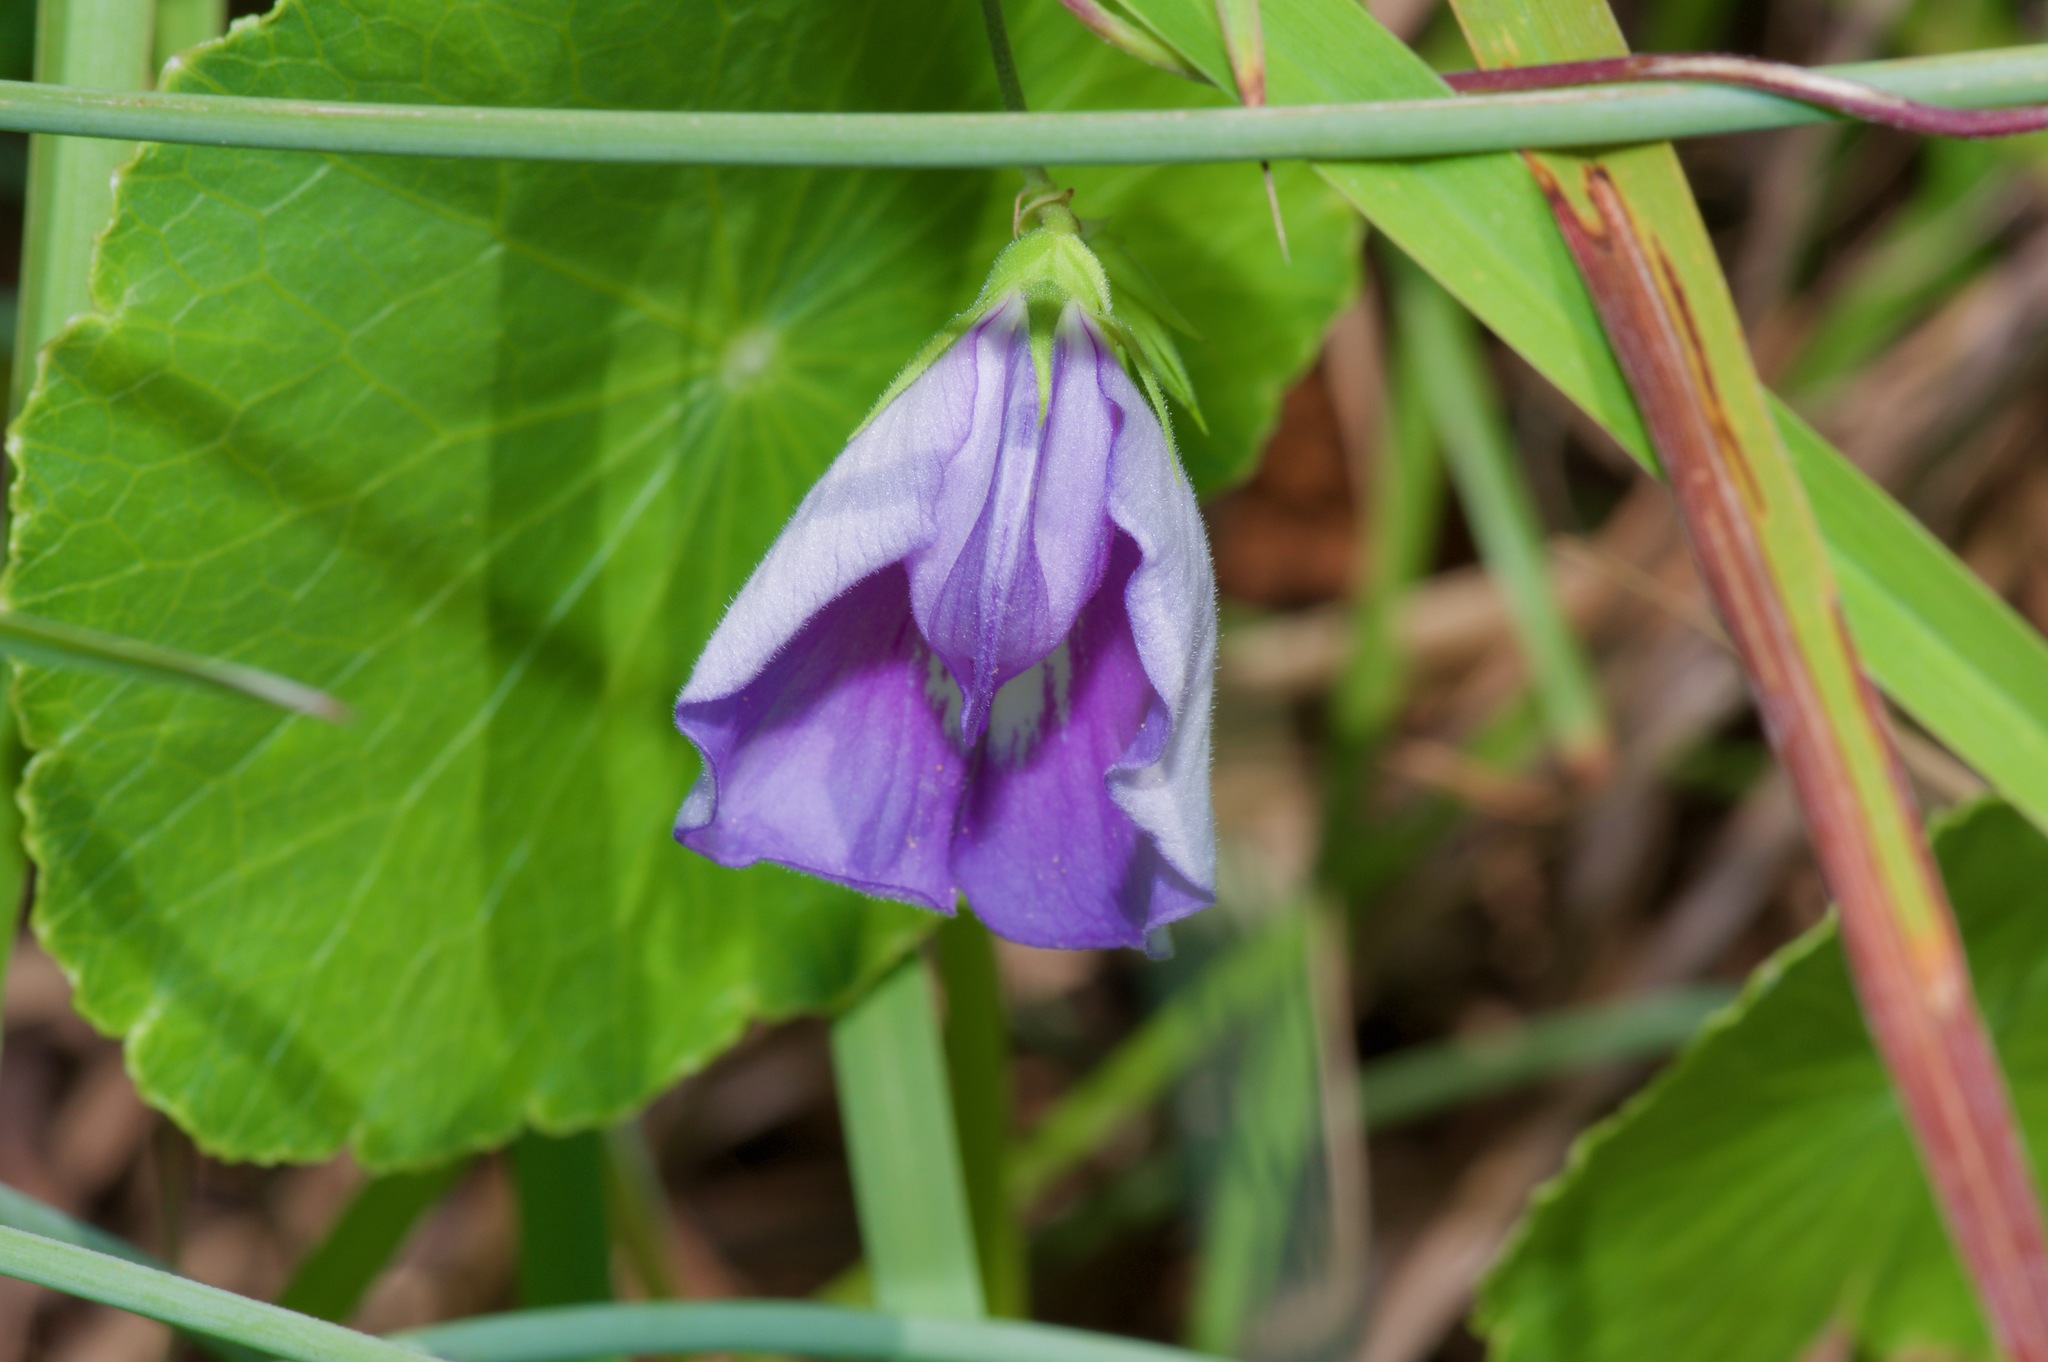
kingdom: Plantae
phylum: Tracheophyta
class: Magnoliopsida
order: Fabales
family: Fabaceae
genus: Centrosema
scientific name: Centrosema virginianum
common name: Butterfly-pea
